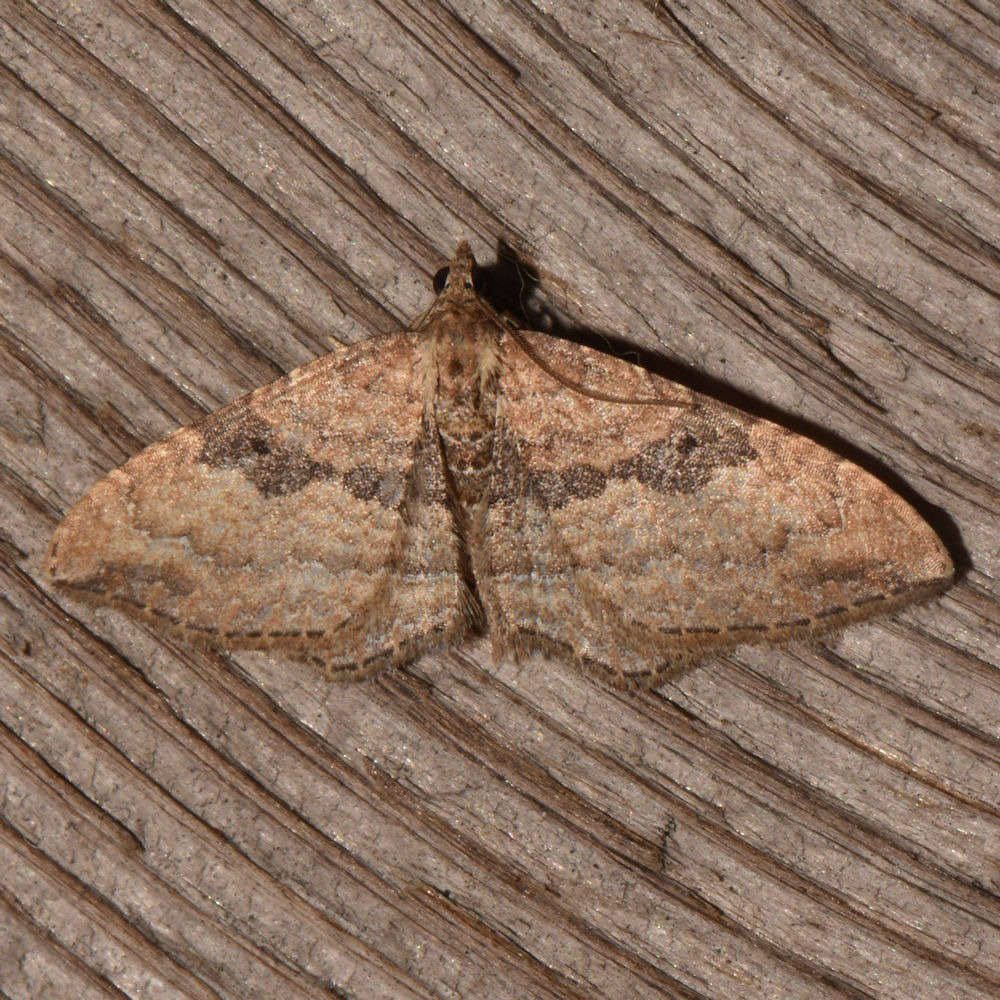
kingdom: Animalia
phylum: Arthropoda
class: Insecta
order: Lepidoptera
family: Geometridae
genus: Orthonama
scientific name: Orthonama obstipata
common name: The gem
